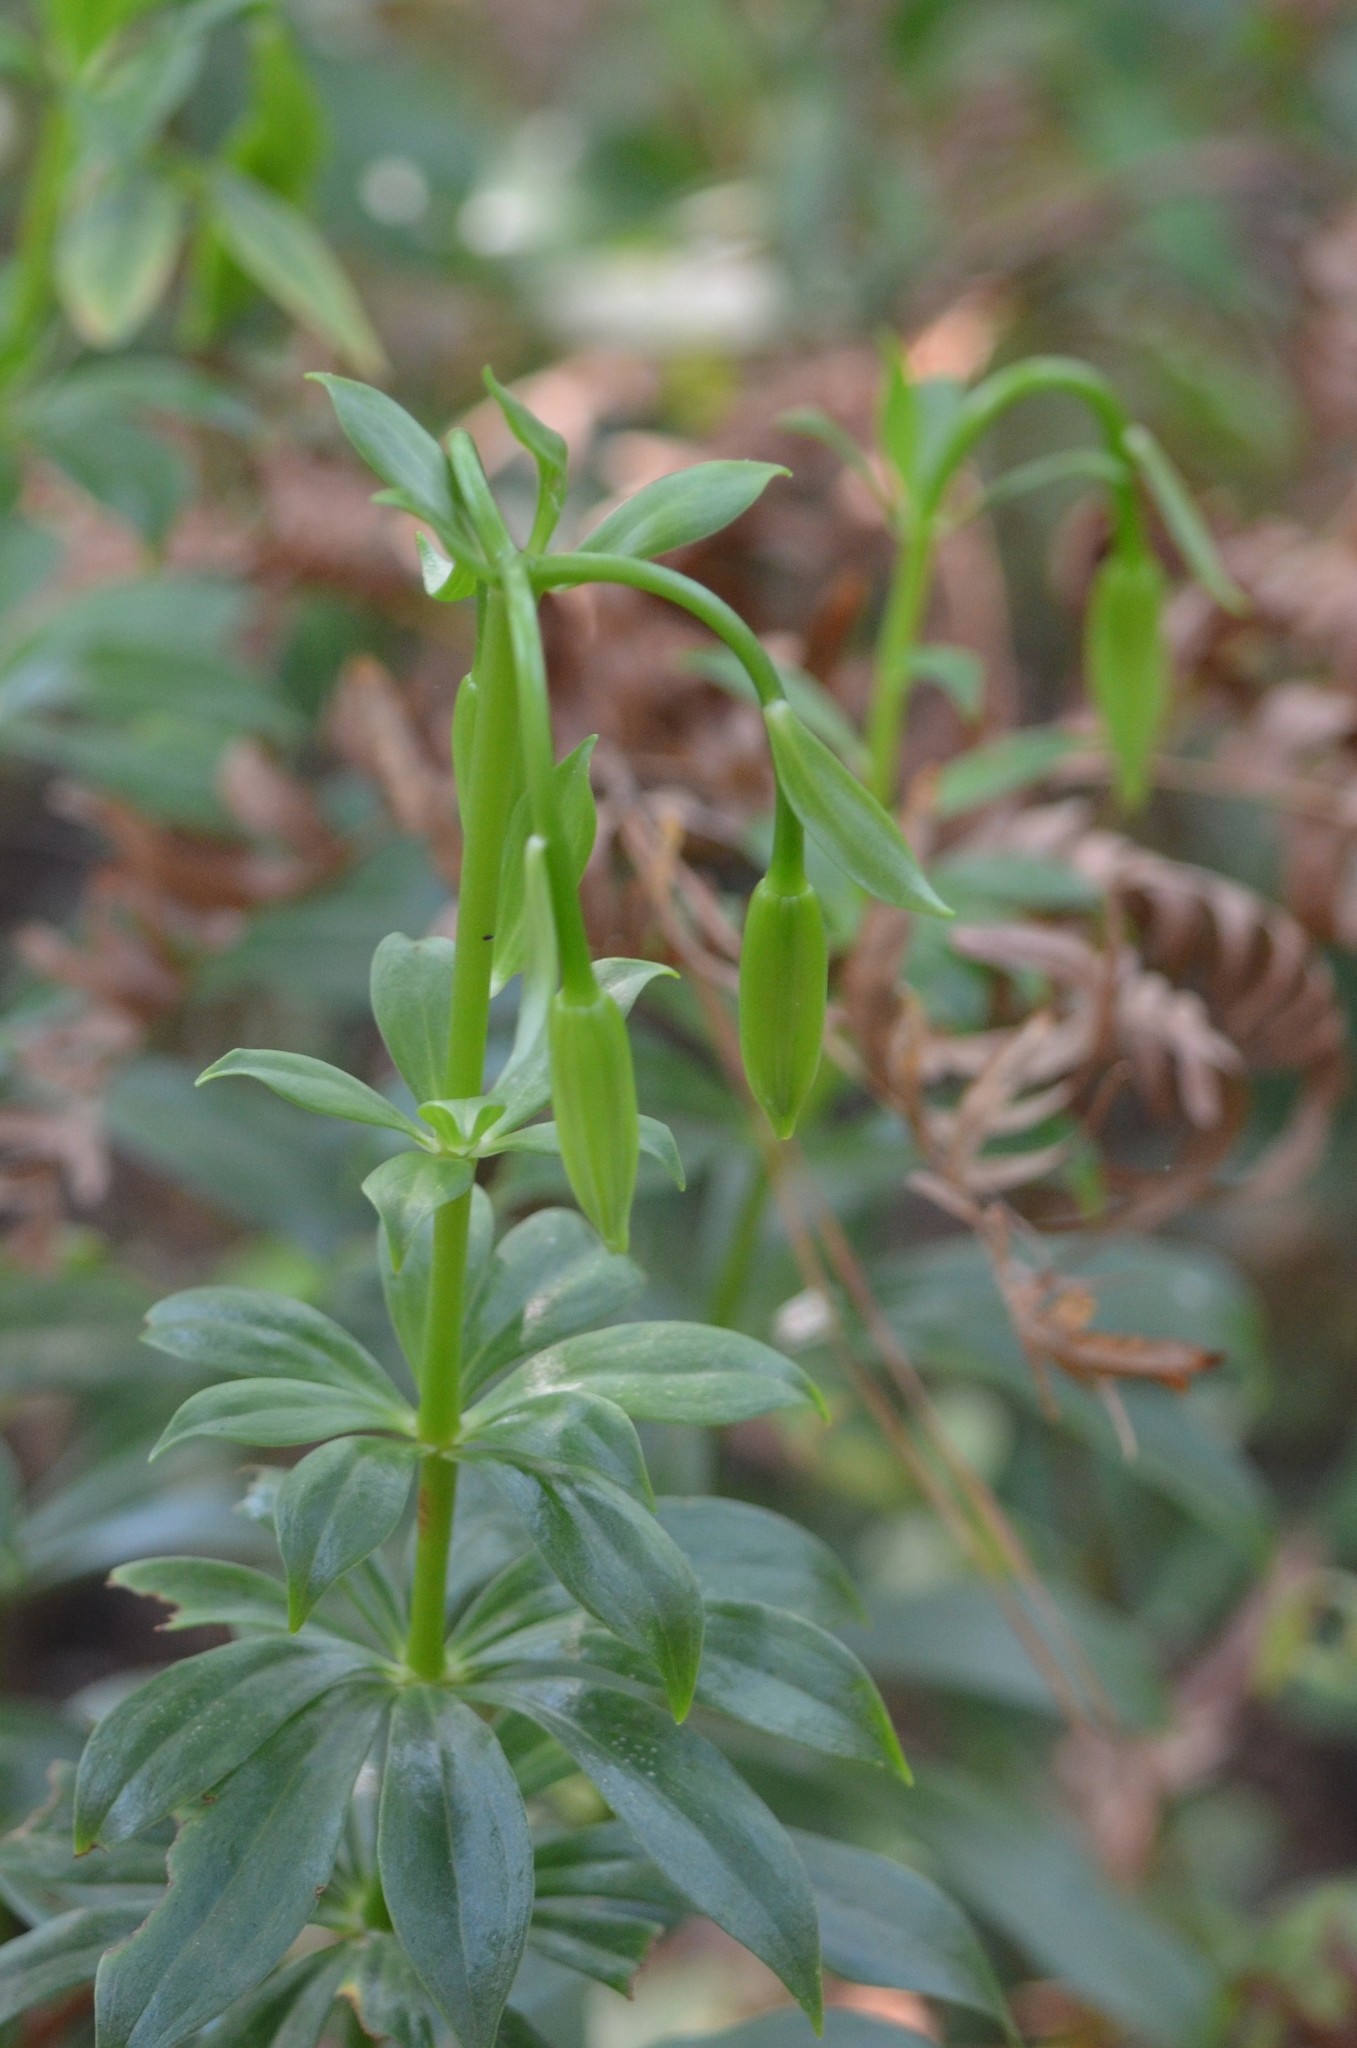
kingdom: Plantae
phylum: Tracheophyta
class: Liliopsida
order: Liliales
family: Liliaceae
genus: Lilium
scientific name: Lilium michauxii
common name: Carolina lily
